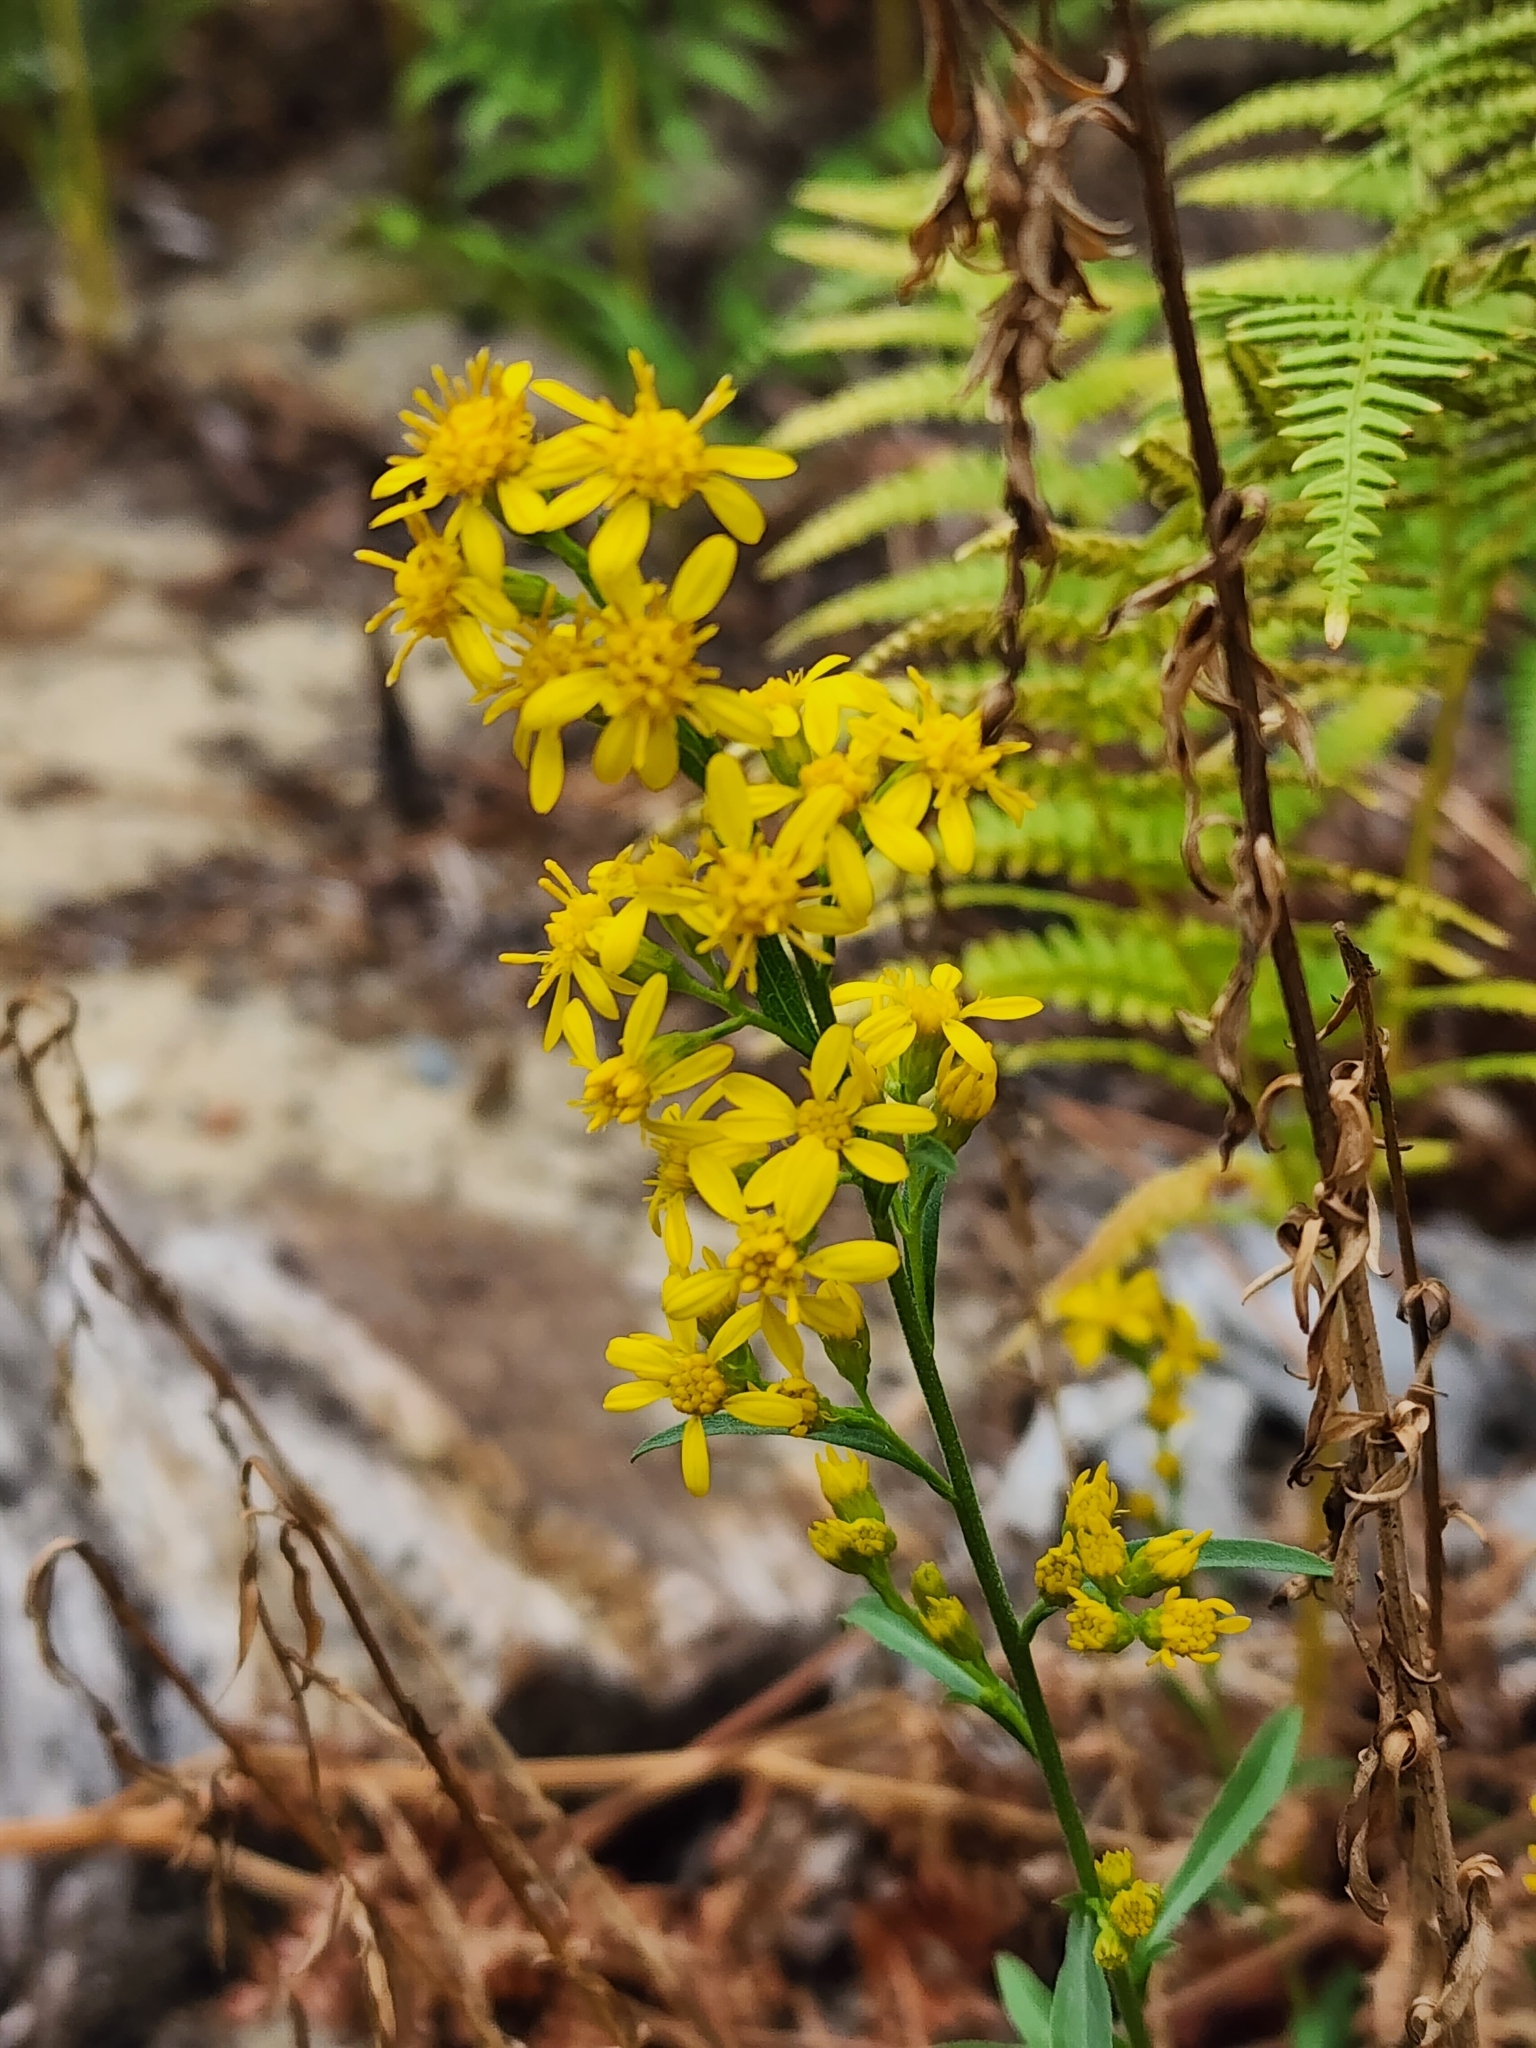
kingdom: Plantae
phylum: Tracheophyta
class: Magnoliopsida
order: Asterales
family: Asteraceae
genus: Solidago
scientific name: Solidago virgaurea
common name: Goldenrod
